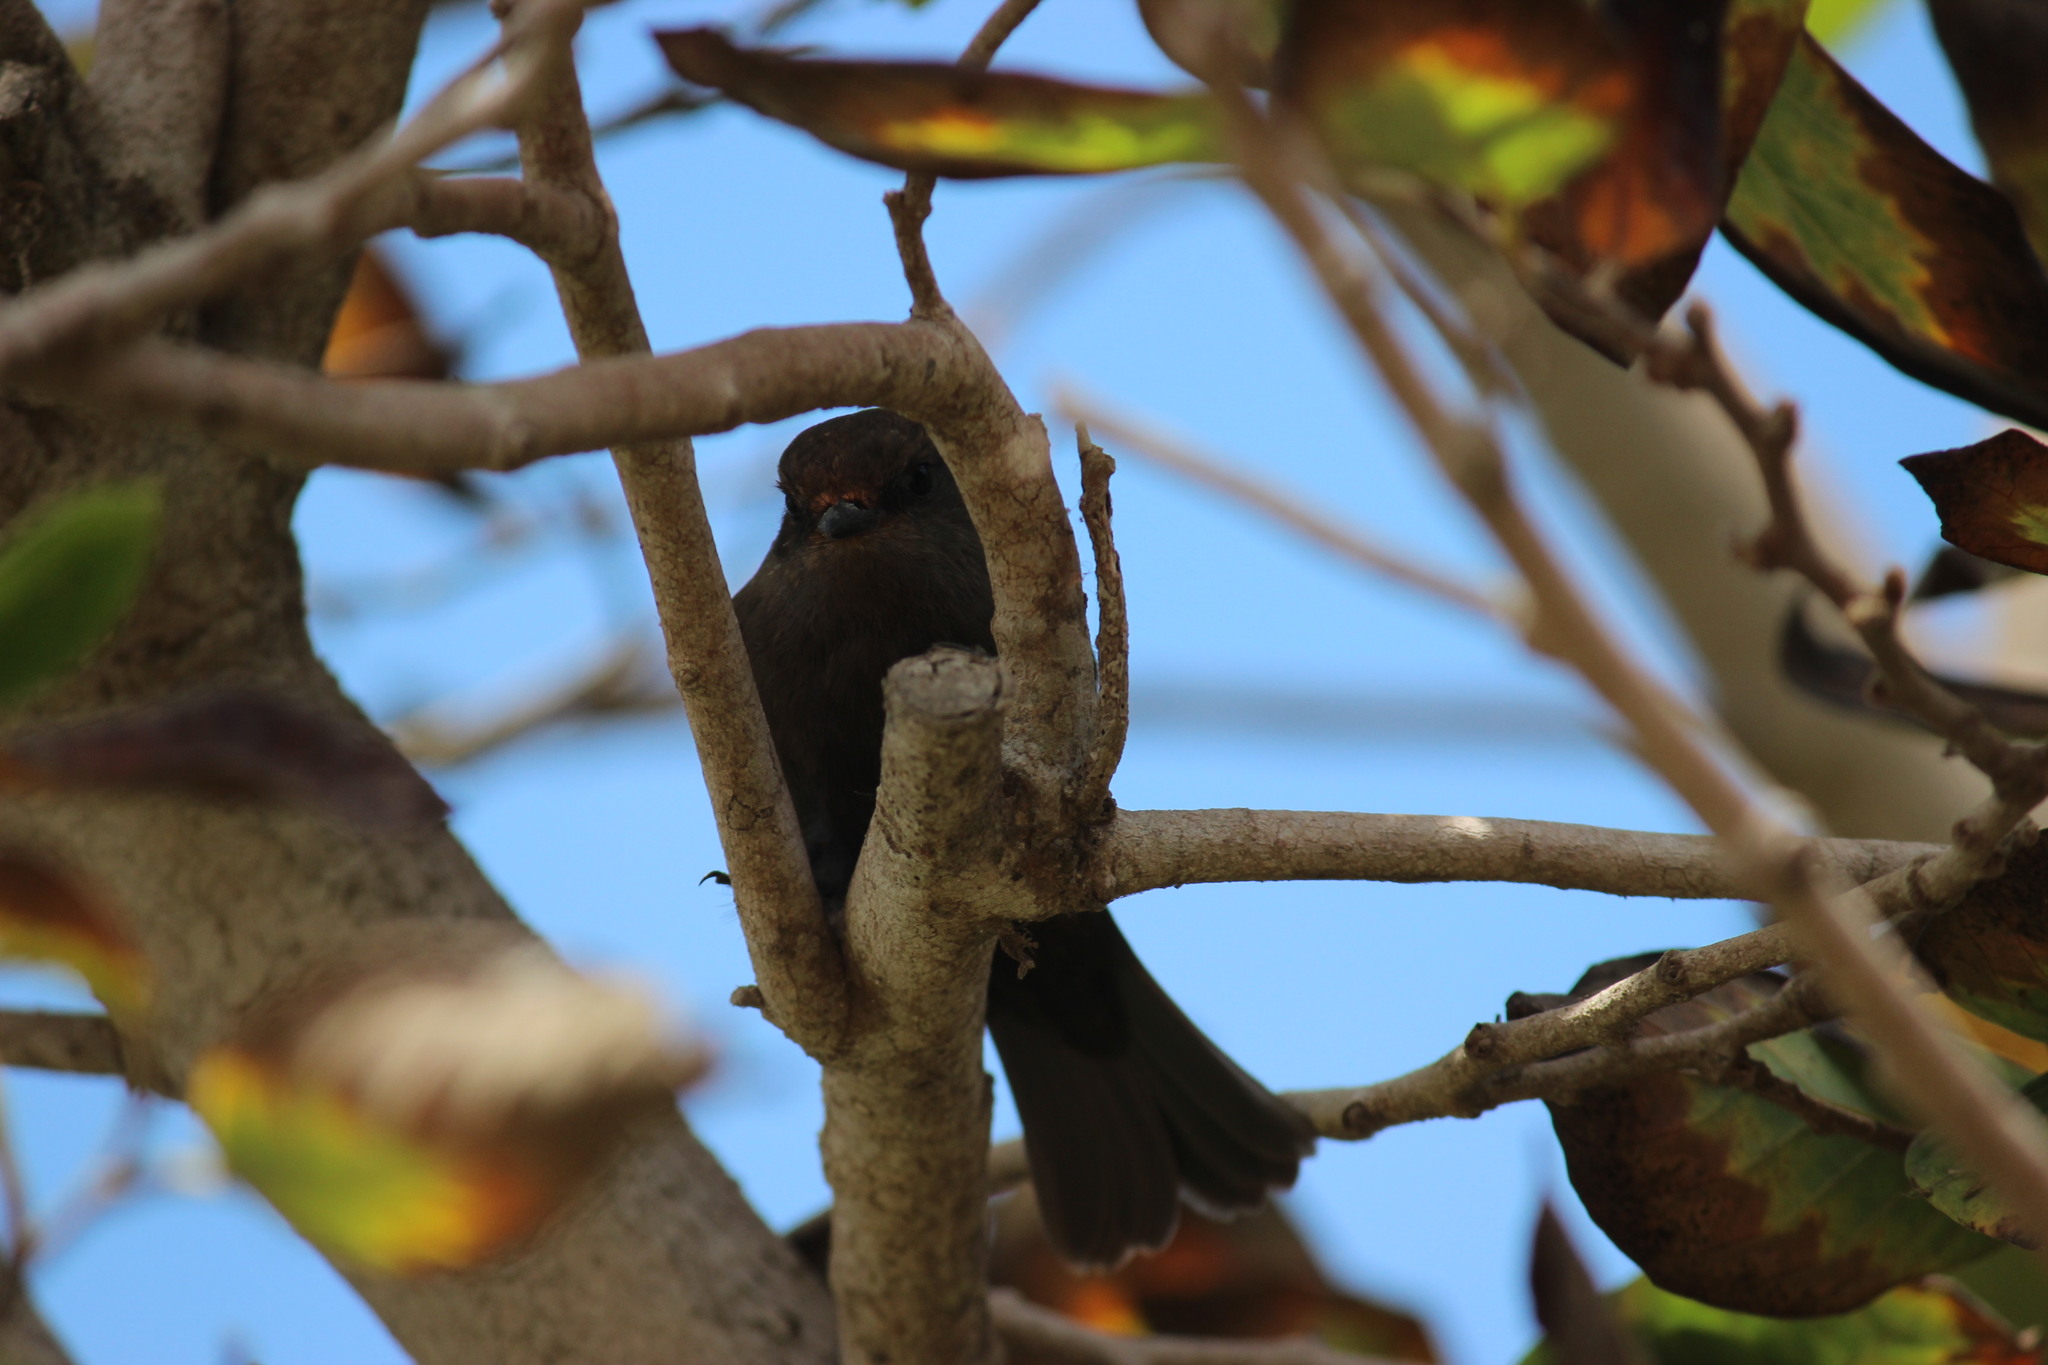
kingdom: Animalia
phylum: Chordata
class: Aves
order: Passeriformes
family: Tyrannidae
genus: Pyrocephalus
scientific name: Pyrocephalus rubinus
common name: Vermilion flycatcher
